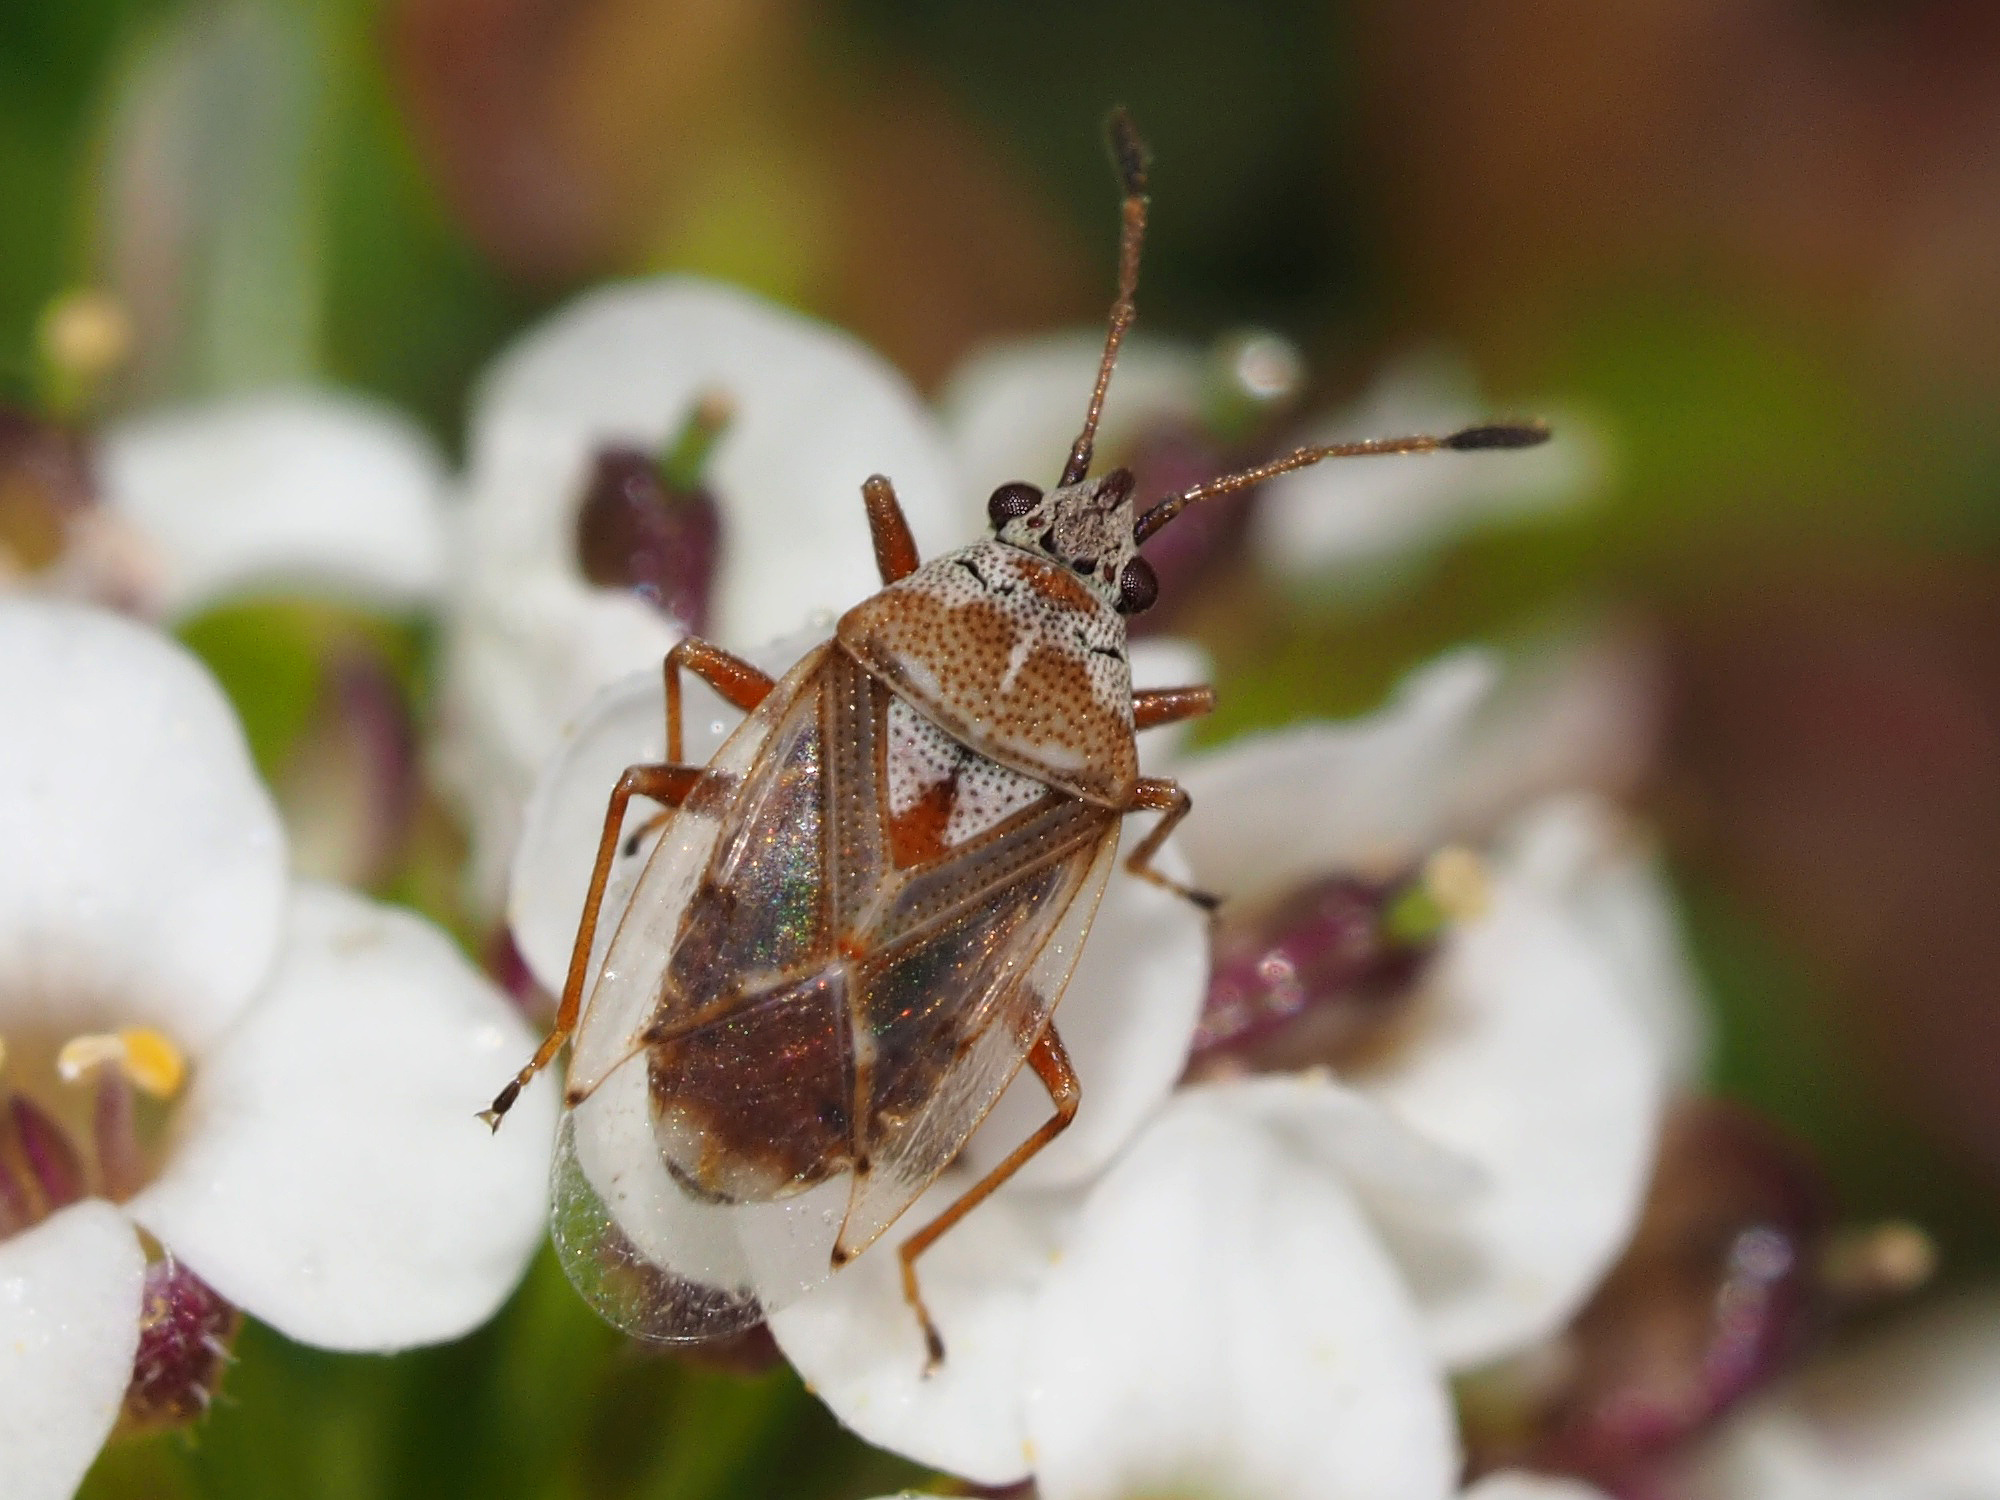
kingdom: Animalia
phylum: Arthropoda
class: Insecta
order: Hemiptera
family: Lygaeidae
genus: Kleidocerys
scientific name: Kleidocerys ericae
